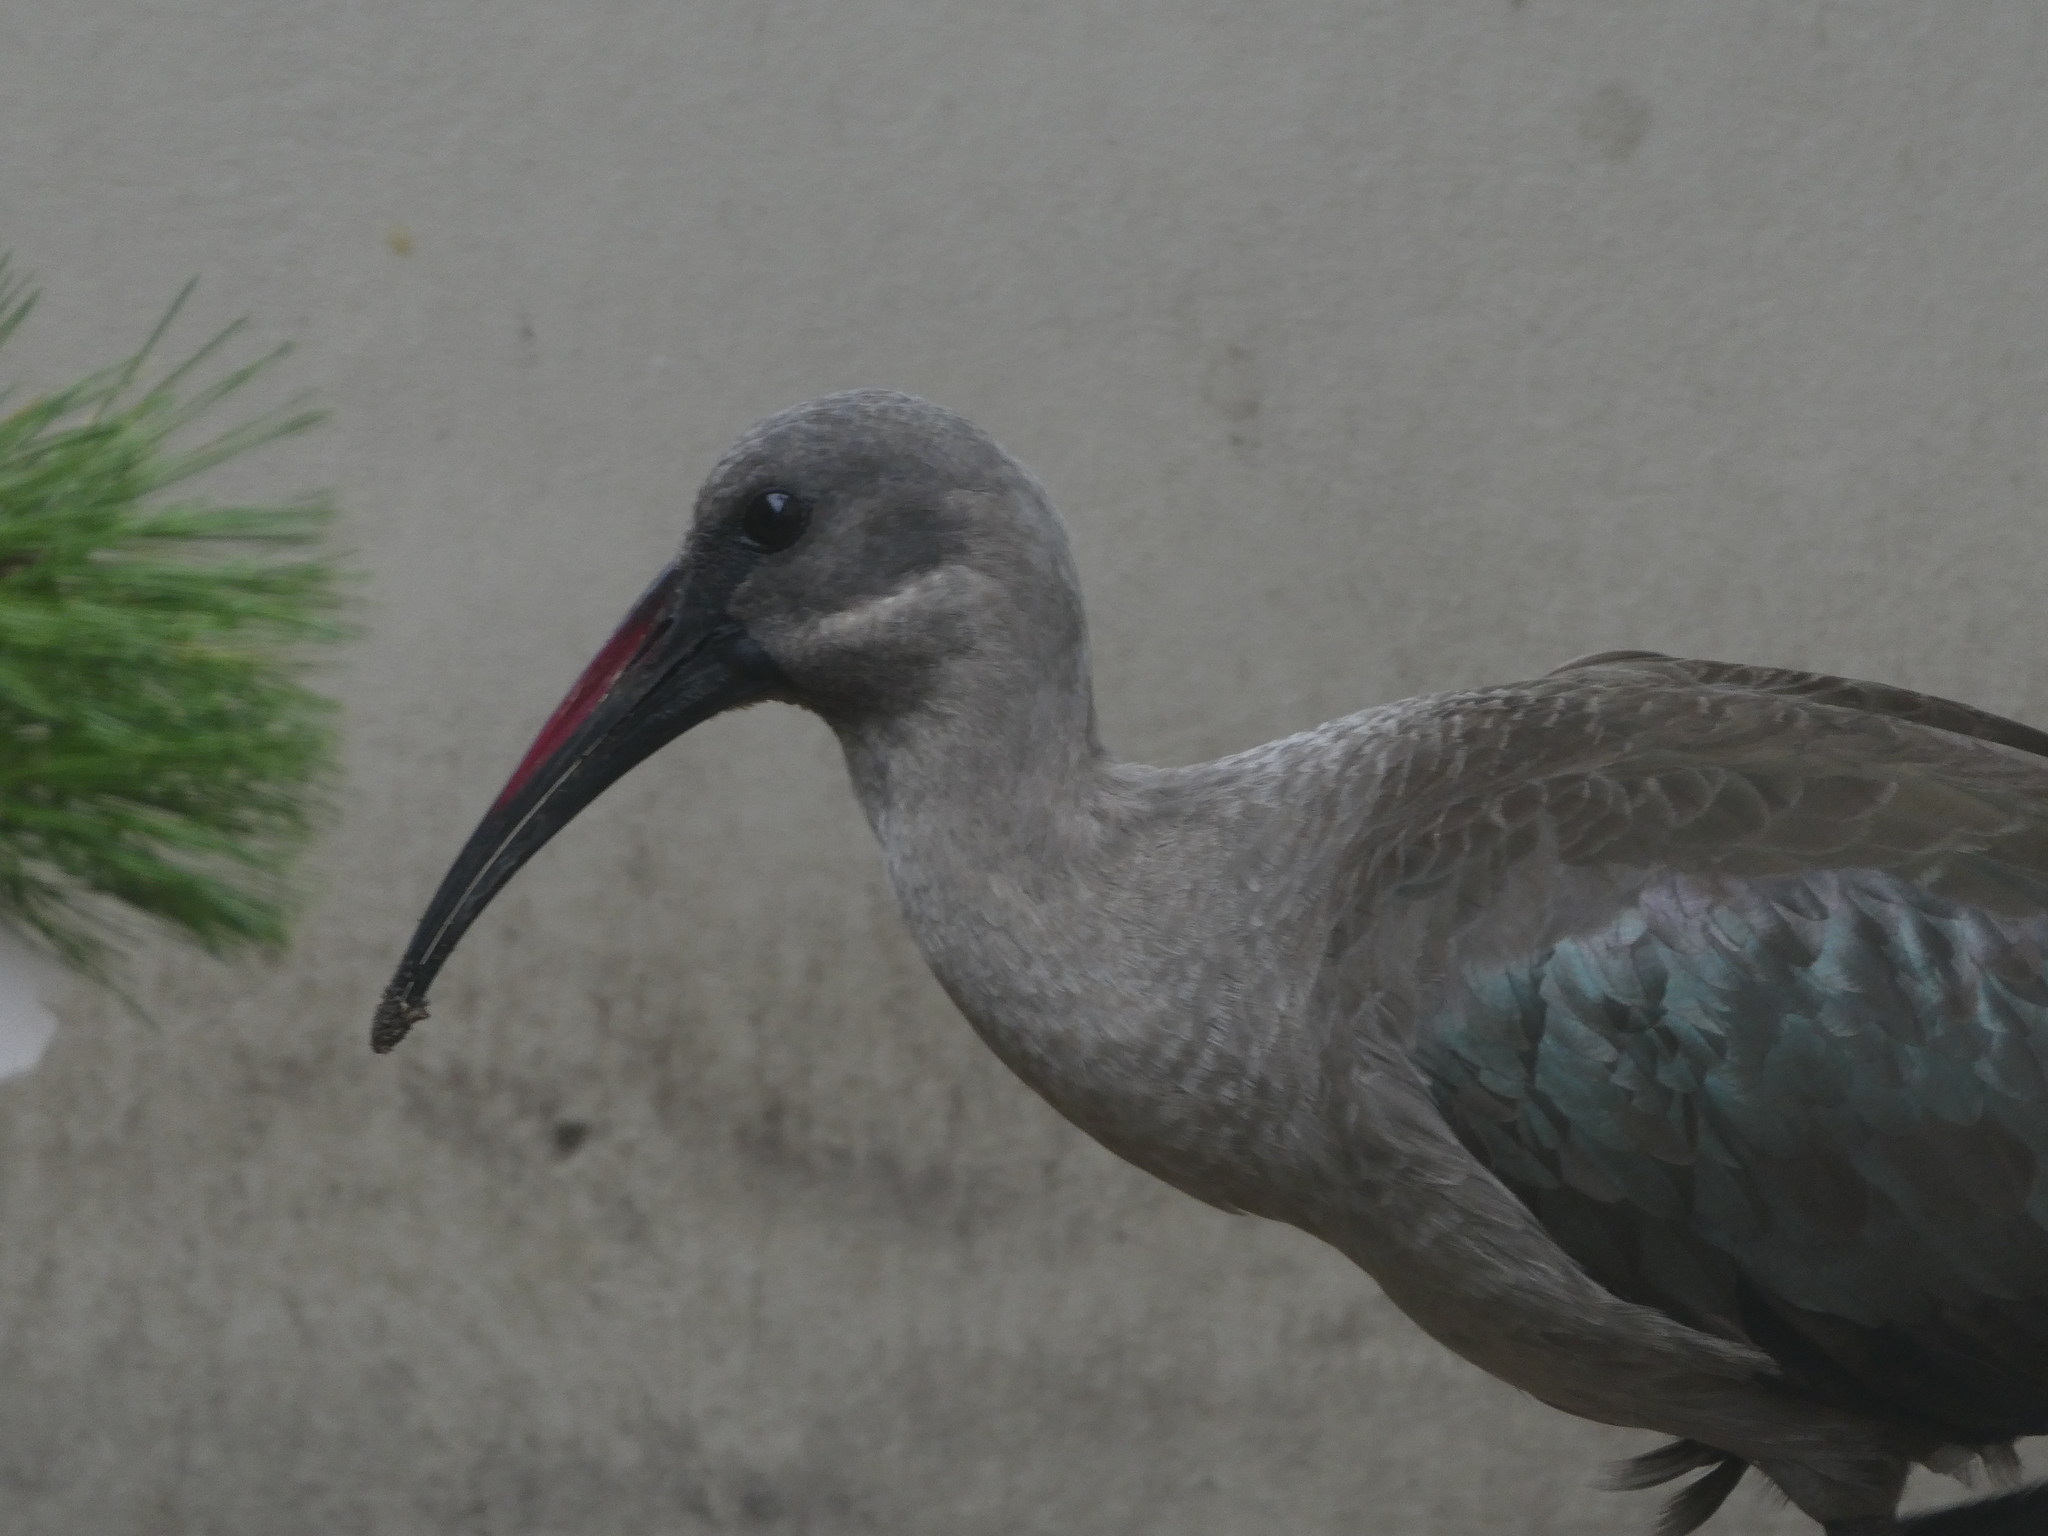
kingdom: Animalia
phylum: Chordata
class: Aves
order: Pelecaniformes
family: Threskiornithidae
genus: Bostrychia
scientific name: Bostrychia hagedash
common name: Hadada ibis
